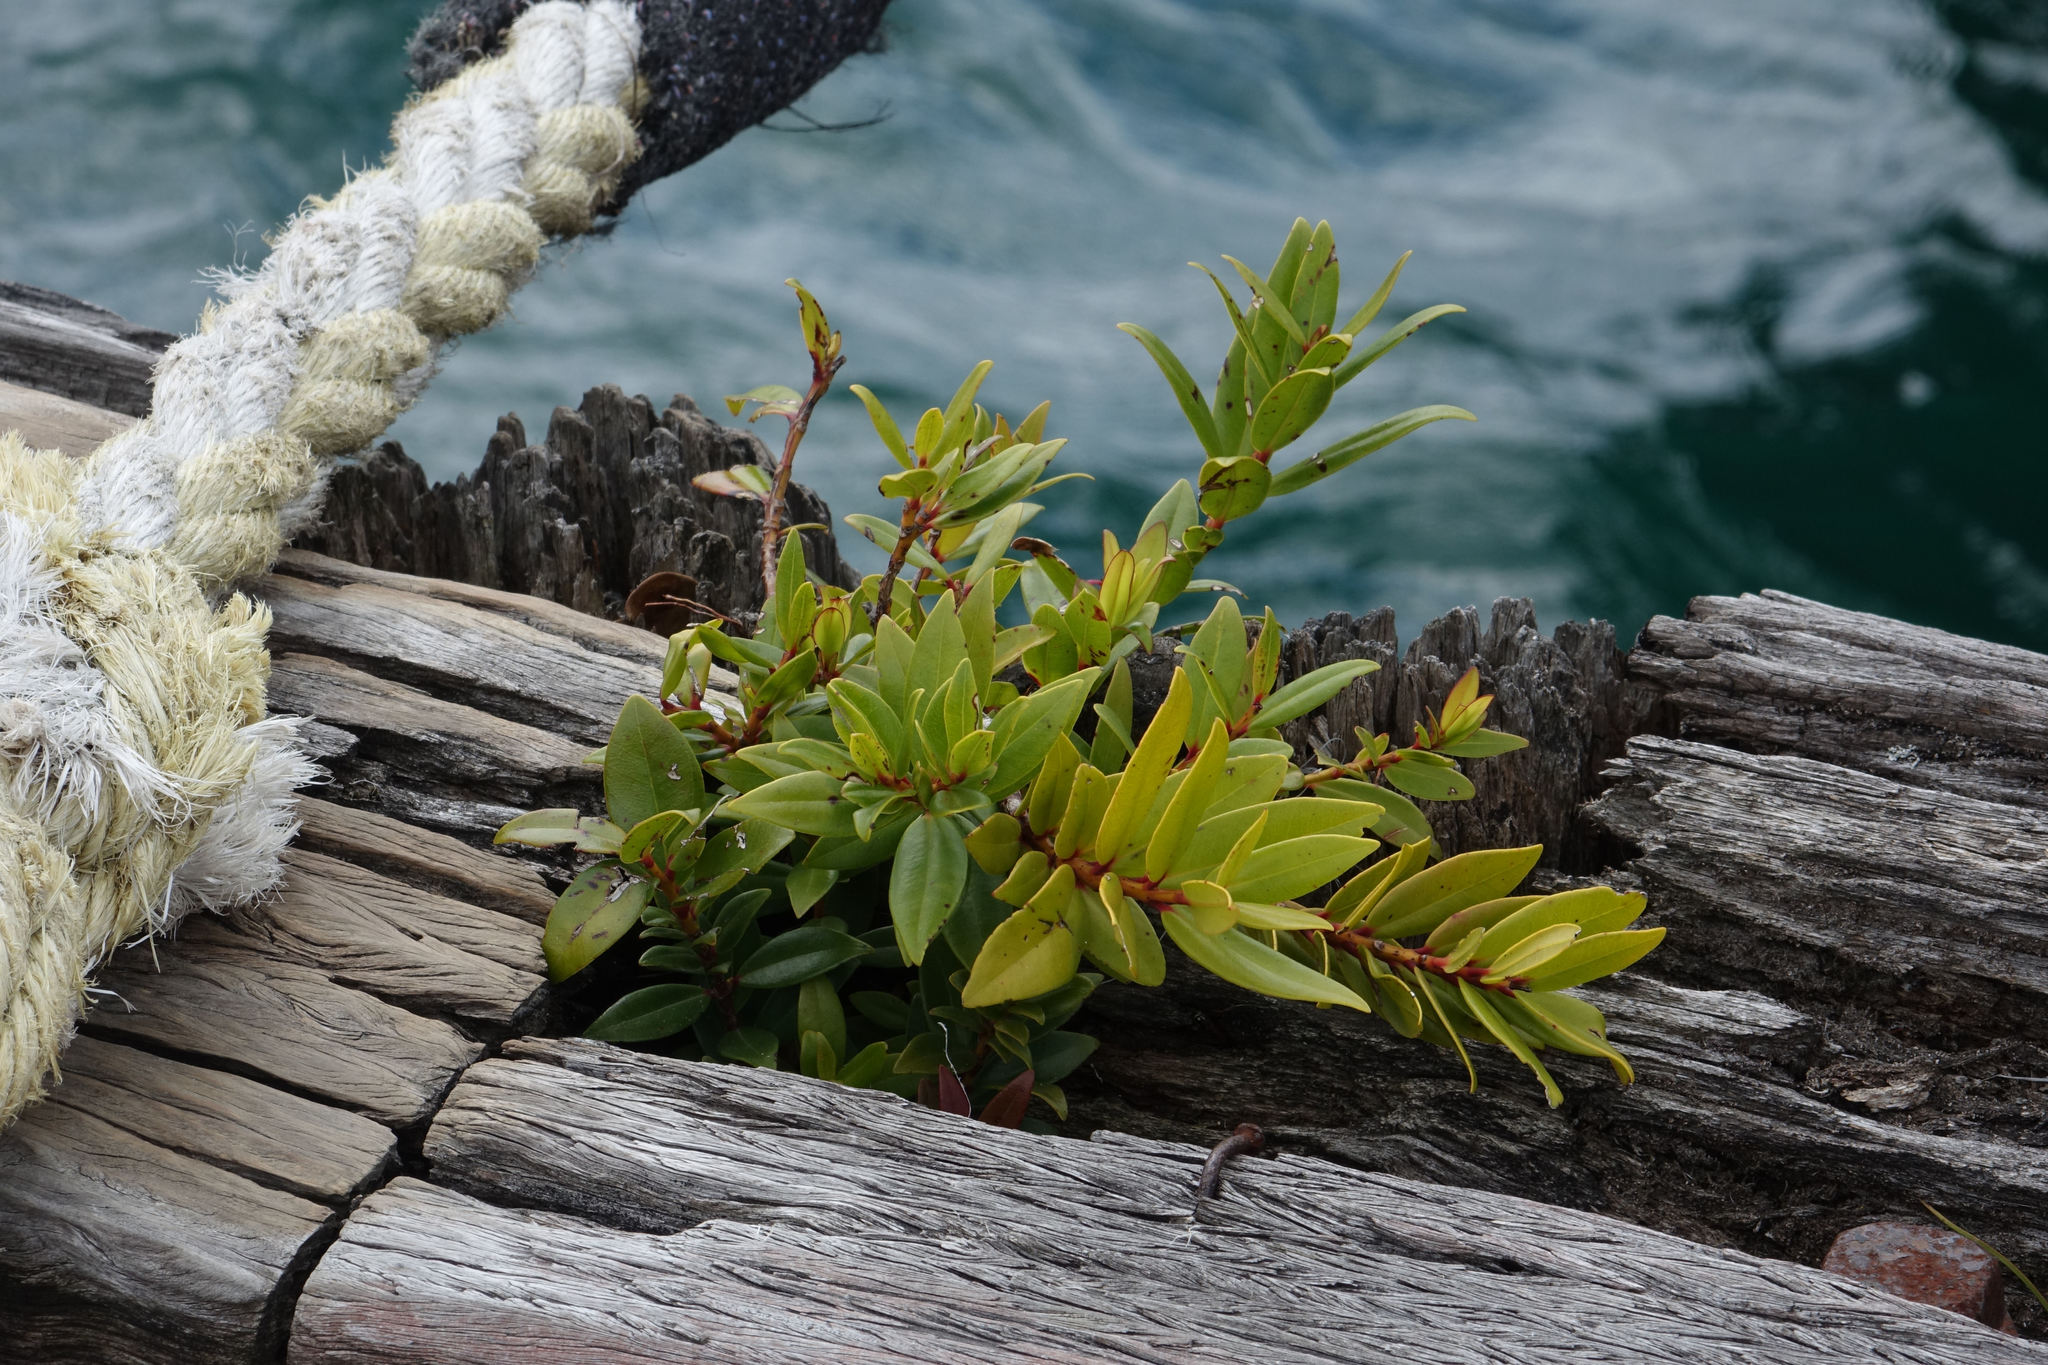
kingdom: Plantae
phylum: Tracheophyta
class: Magnoliopsida
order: Myrtales
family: Myrtaceae
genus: Metrosideros
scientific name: Metrosideros excelsa
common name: New zealand christmastree
